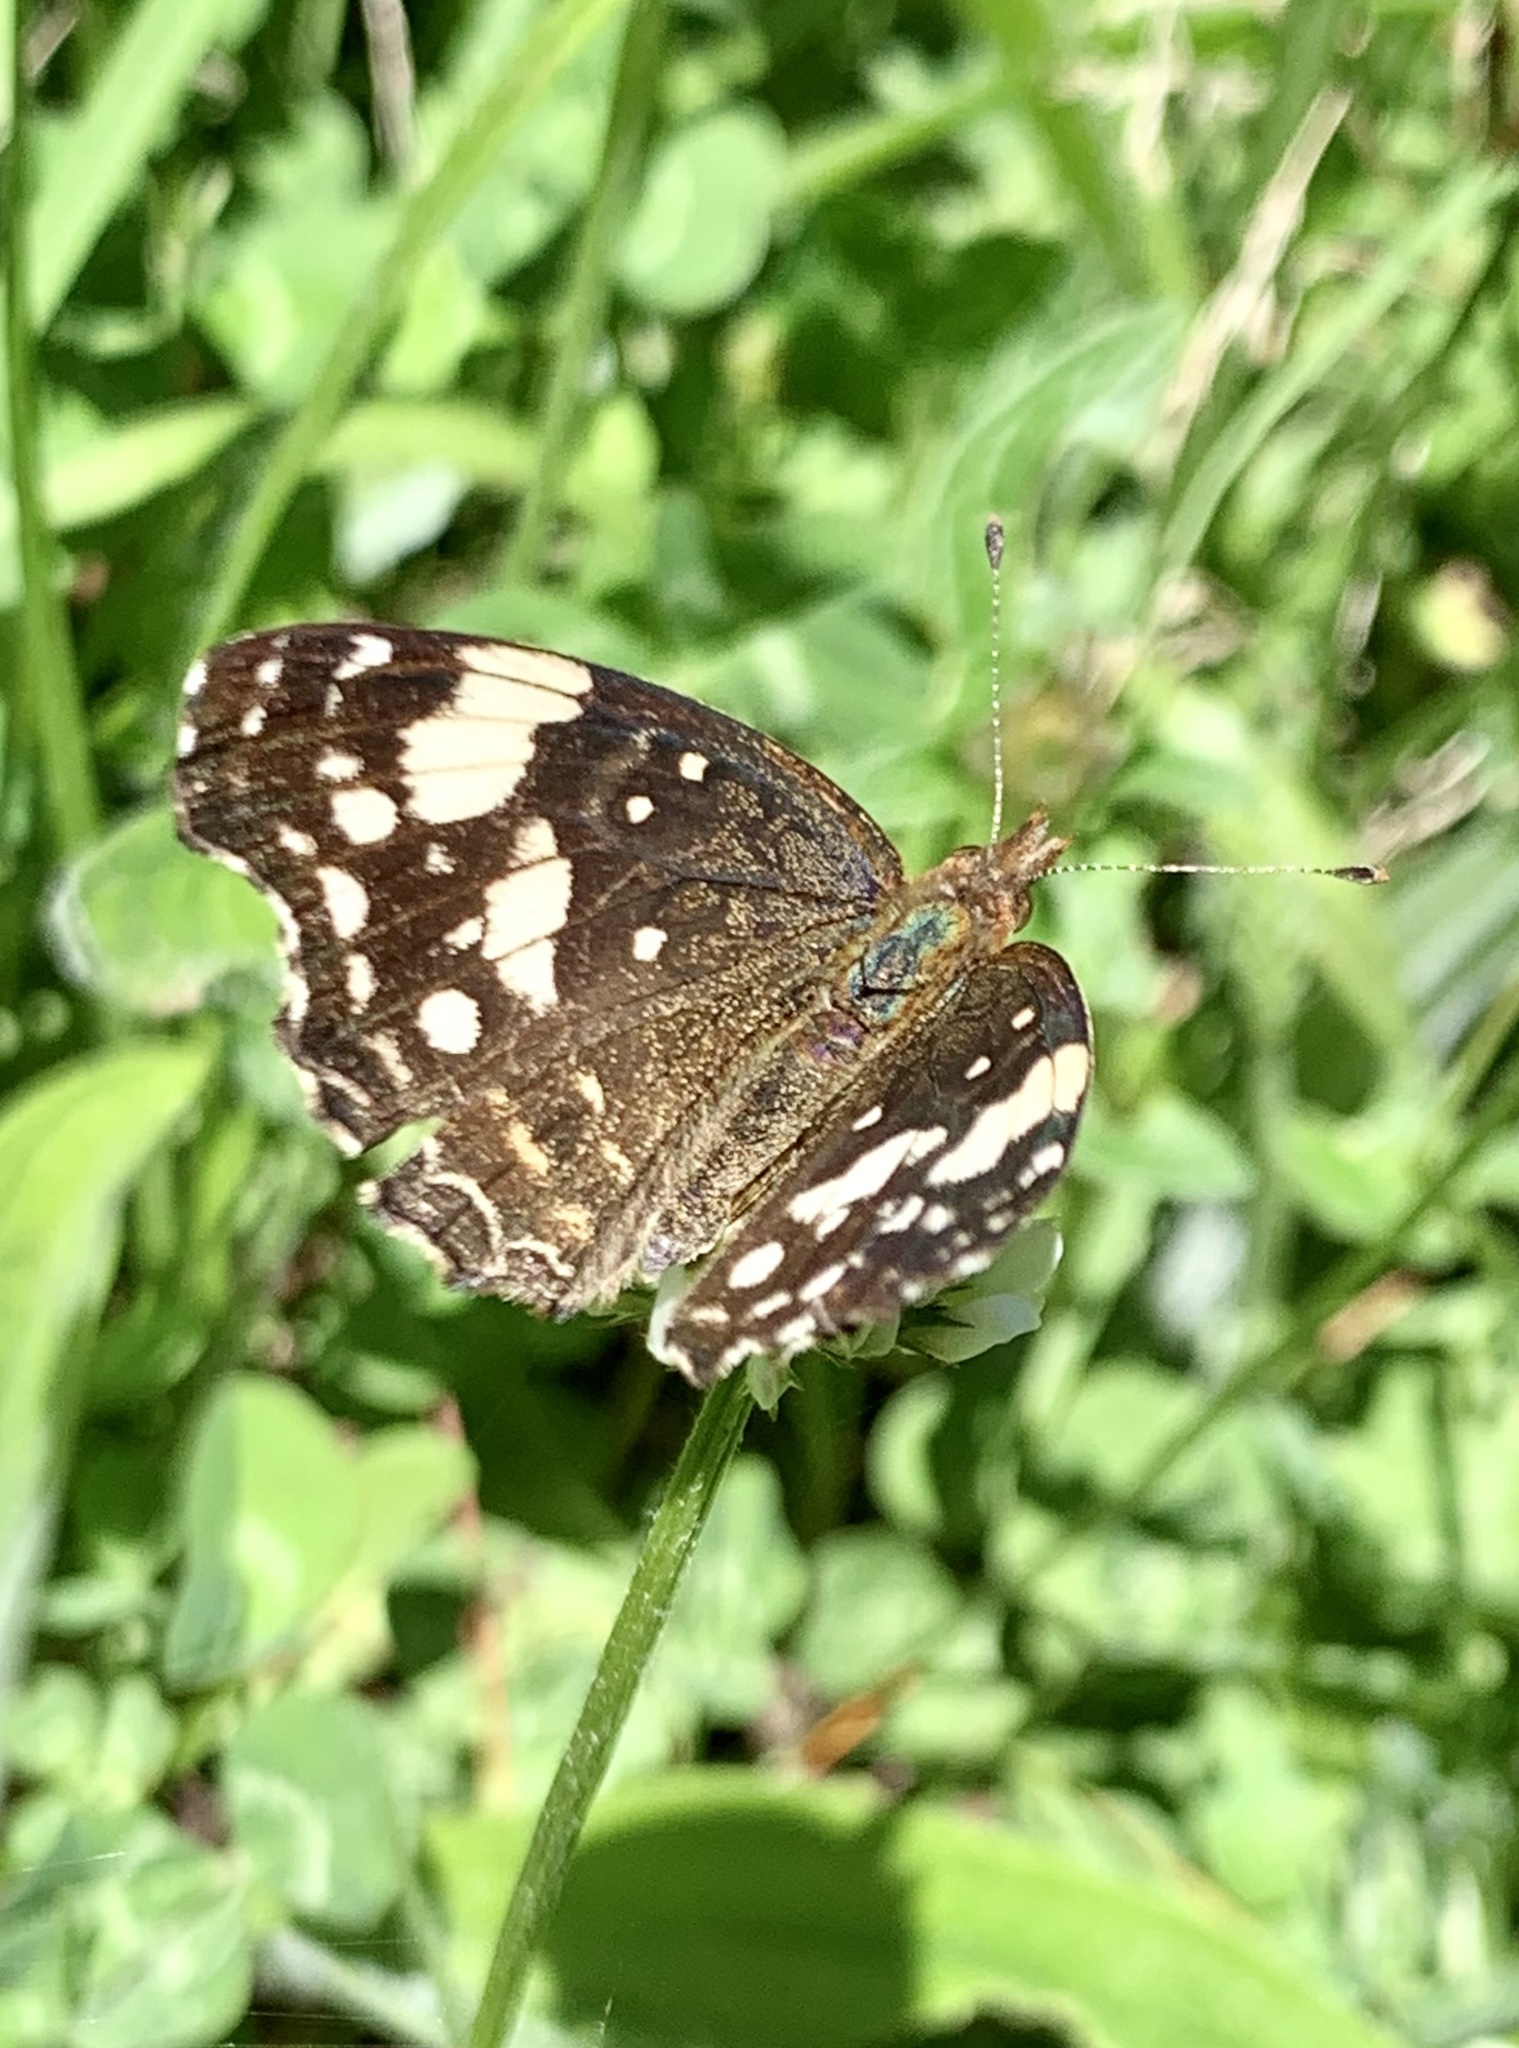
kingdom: Animalia
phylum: Arthropoda
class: Insecta
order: Lepidoptera
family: Nymphalidae
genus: Anthanassa
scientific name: Anthanassa sitalces
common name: Montane crescent
